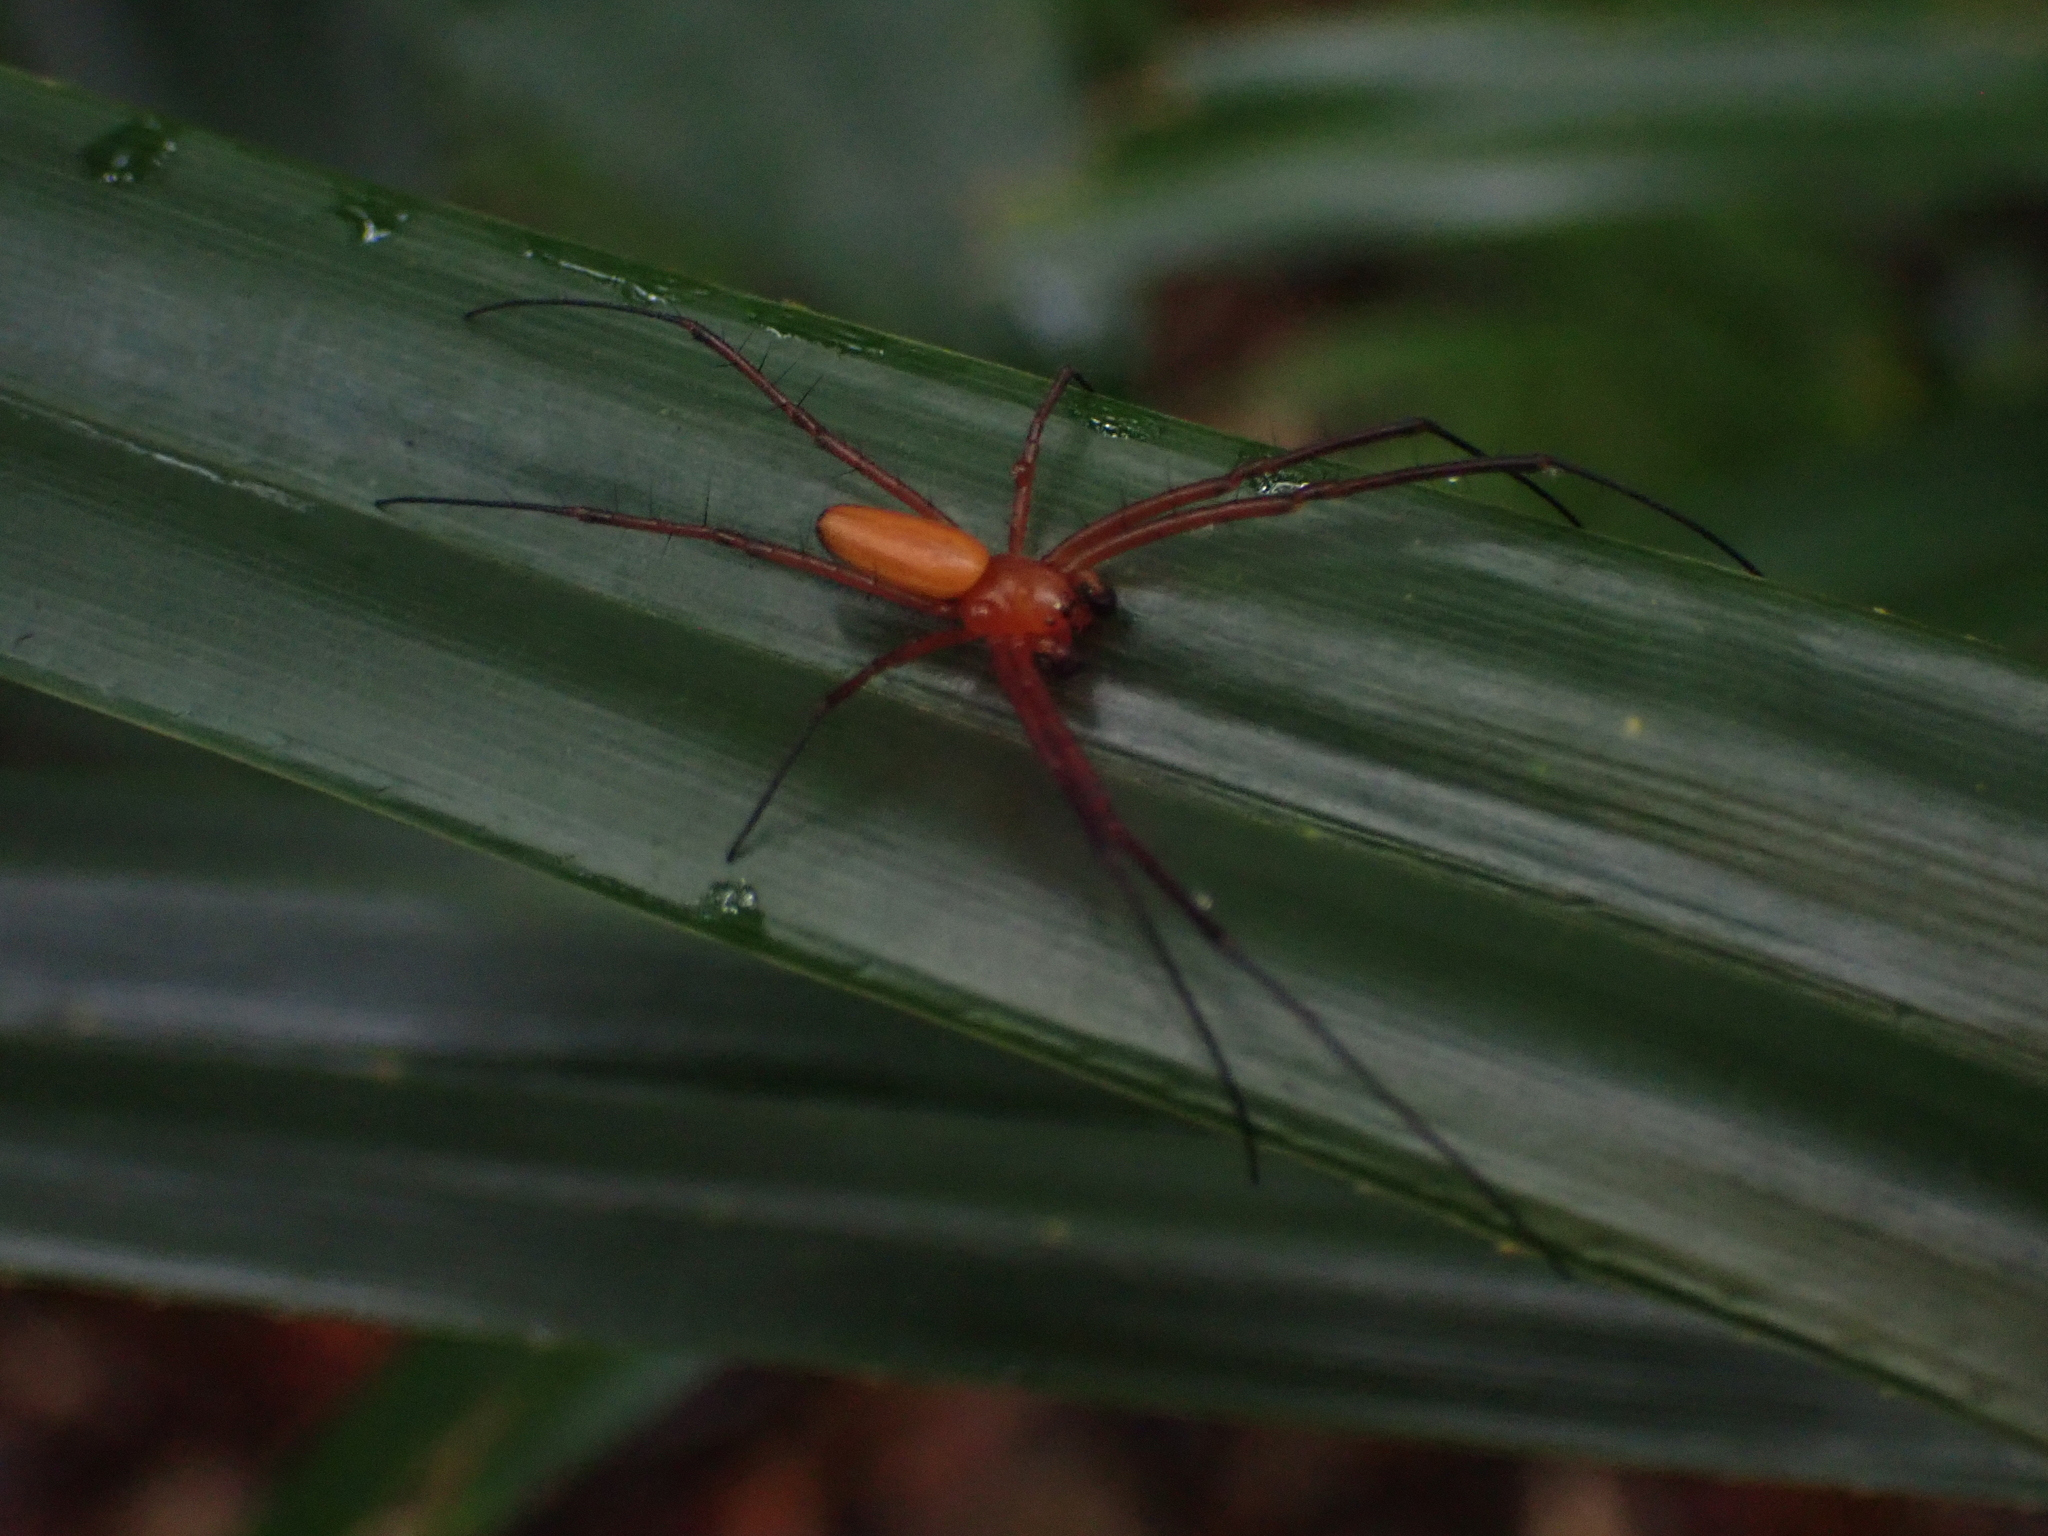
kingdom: Animalia
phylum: Arthropoda
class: Arachnida
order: Araneae
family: Araneidae
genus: Nephila
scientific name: Nephila pilipes
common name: Giant golden orb weaver
